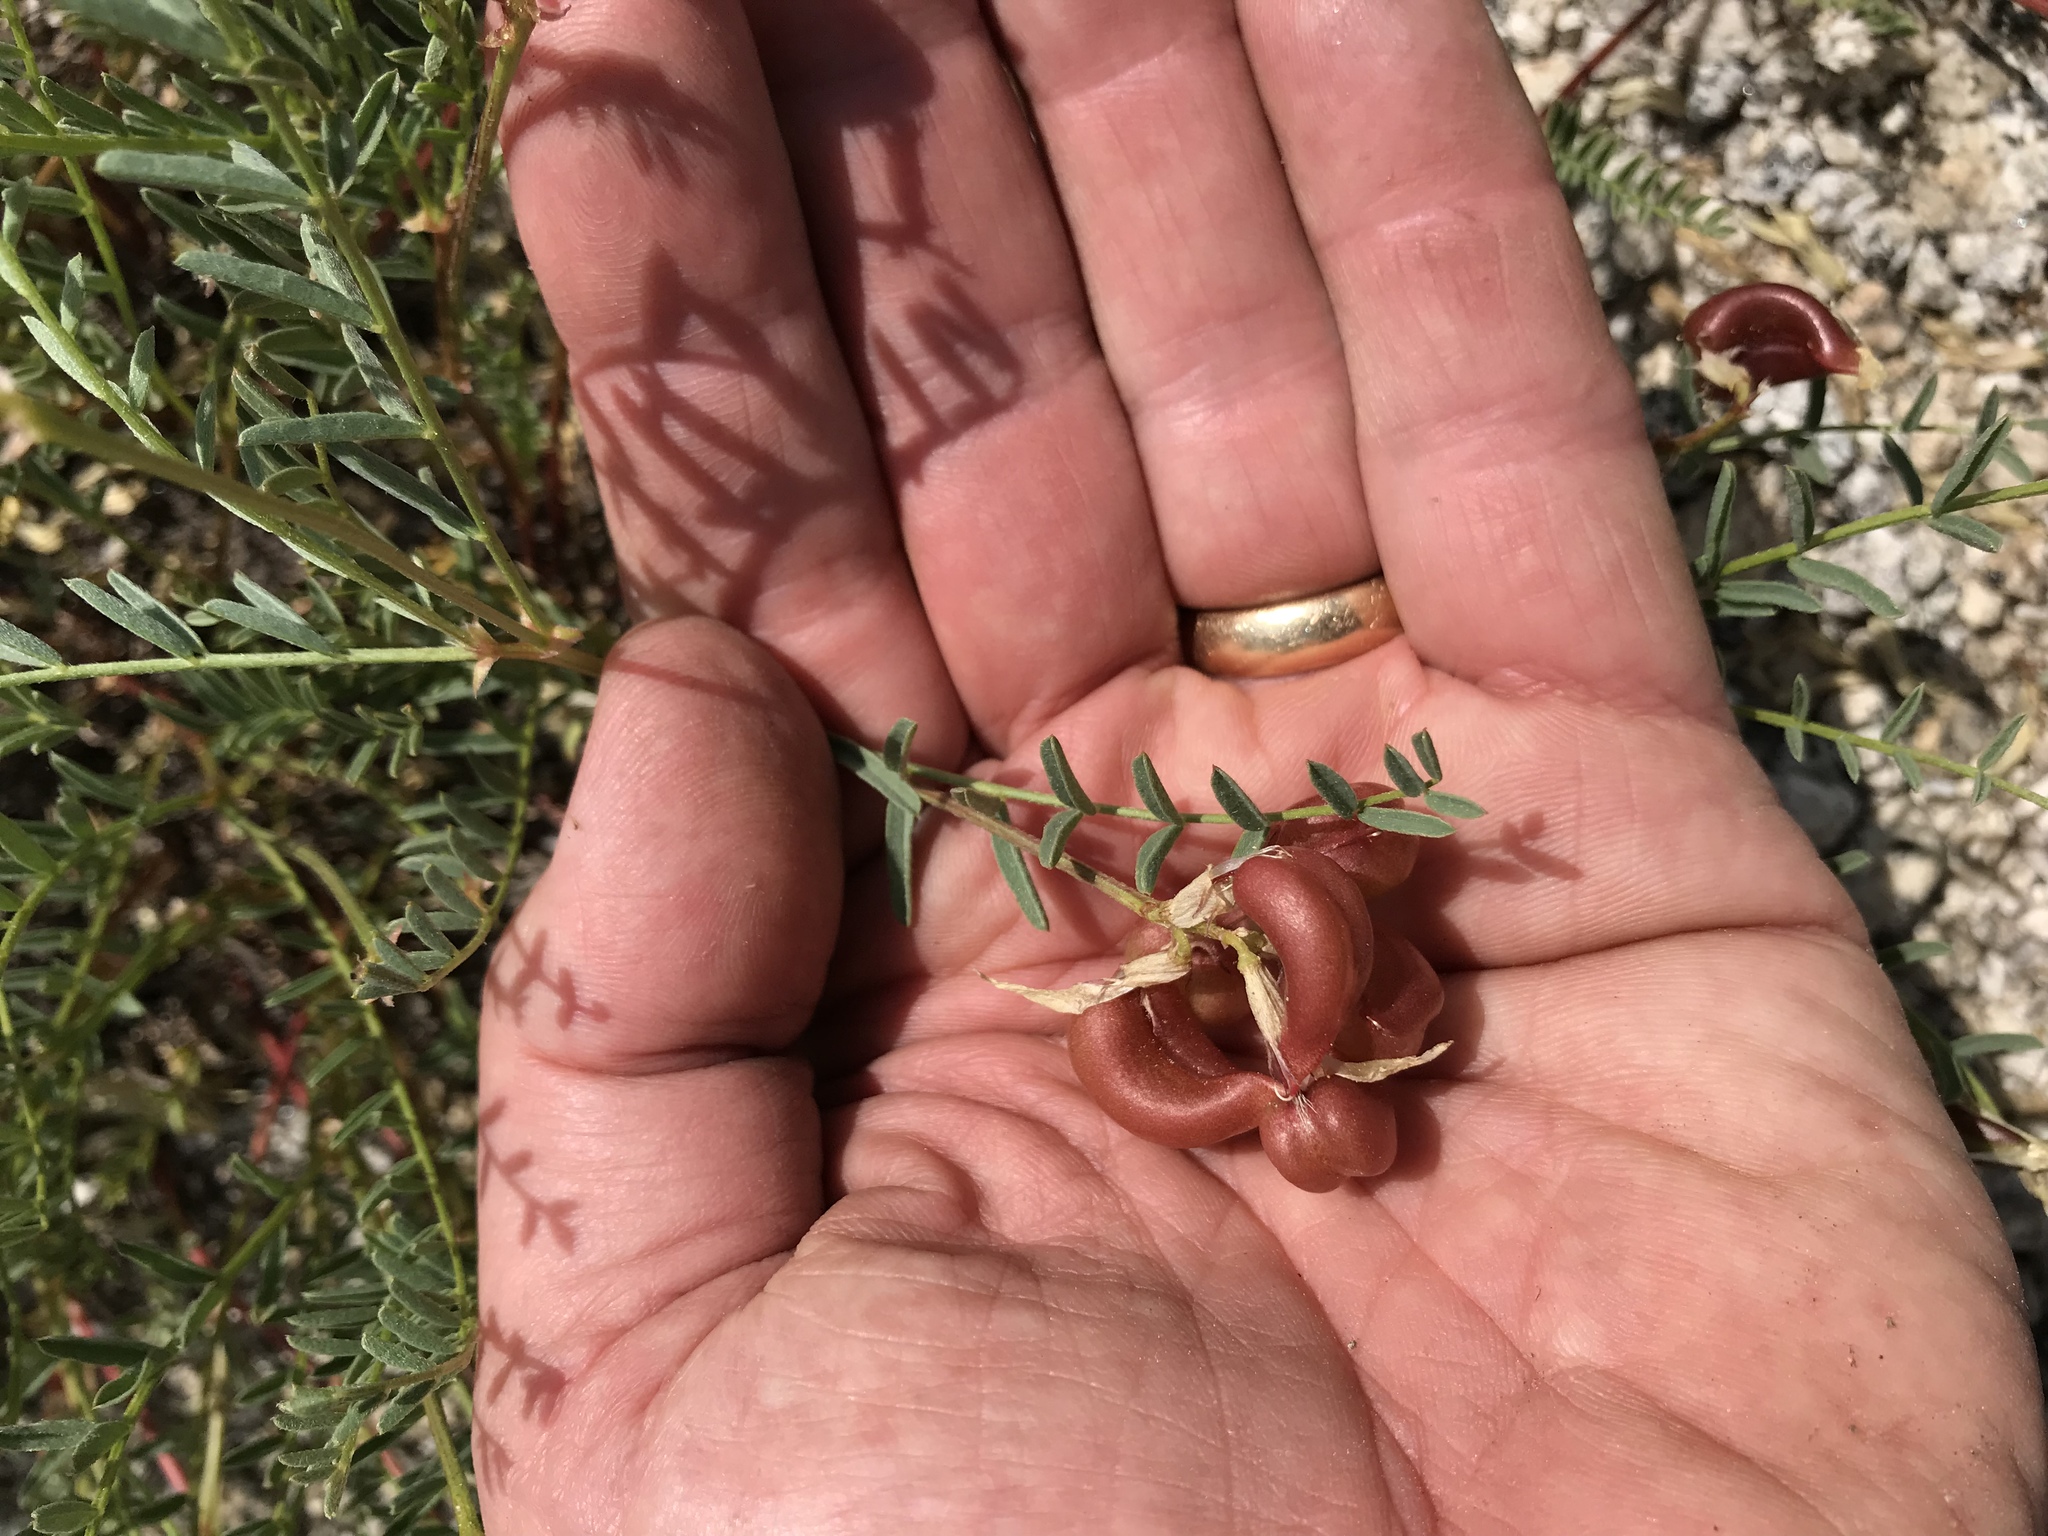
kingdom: Plantae
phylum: Tracheophyta
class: Magnoliopsida
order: Fabales
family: Fabaceae
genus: Astragalus
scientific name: Astragalus bolanderi
